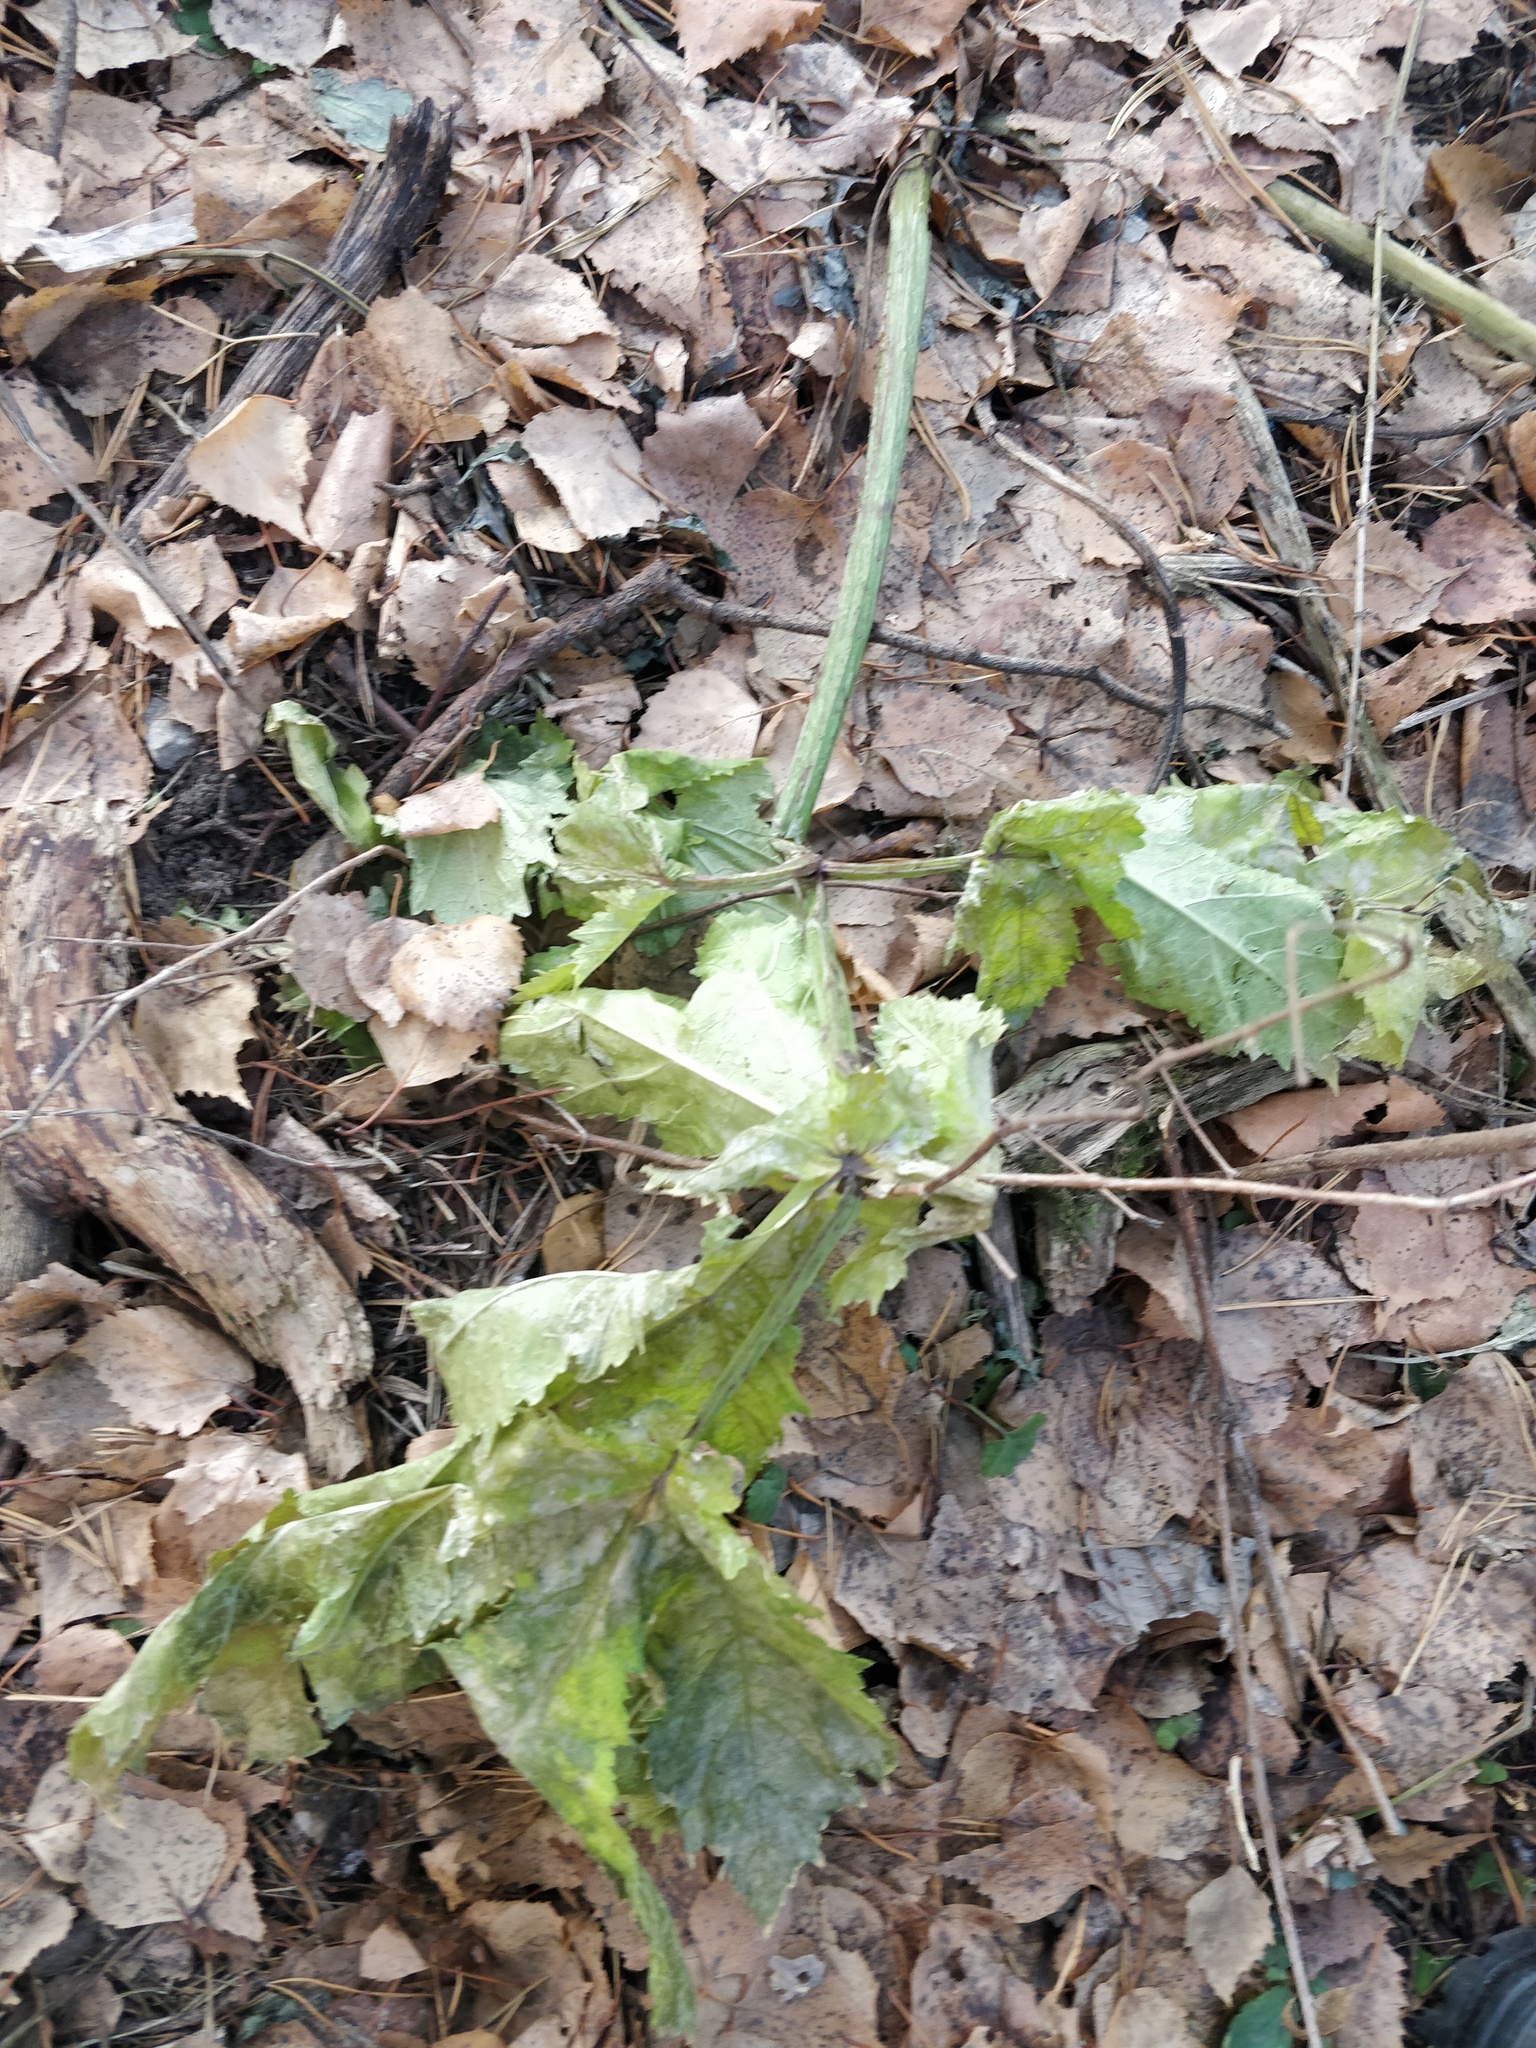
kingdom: Plantae
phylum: Tracheophyta
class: Magnoliopsida
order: Apiales
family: Apiaceae
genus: Heracleum
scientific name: Heracleum sosnowskyi
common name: Sosnowsky's hogweed
